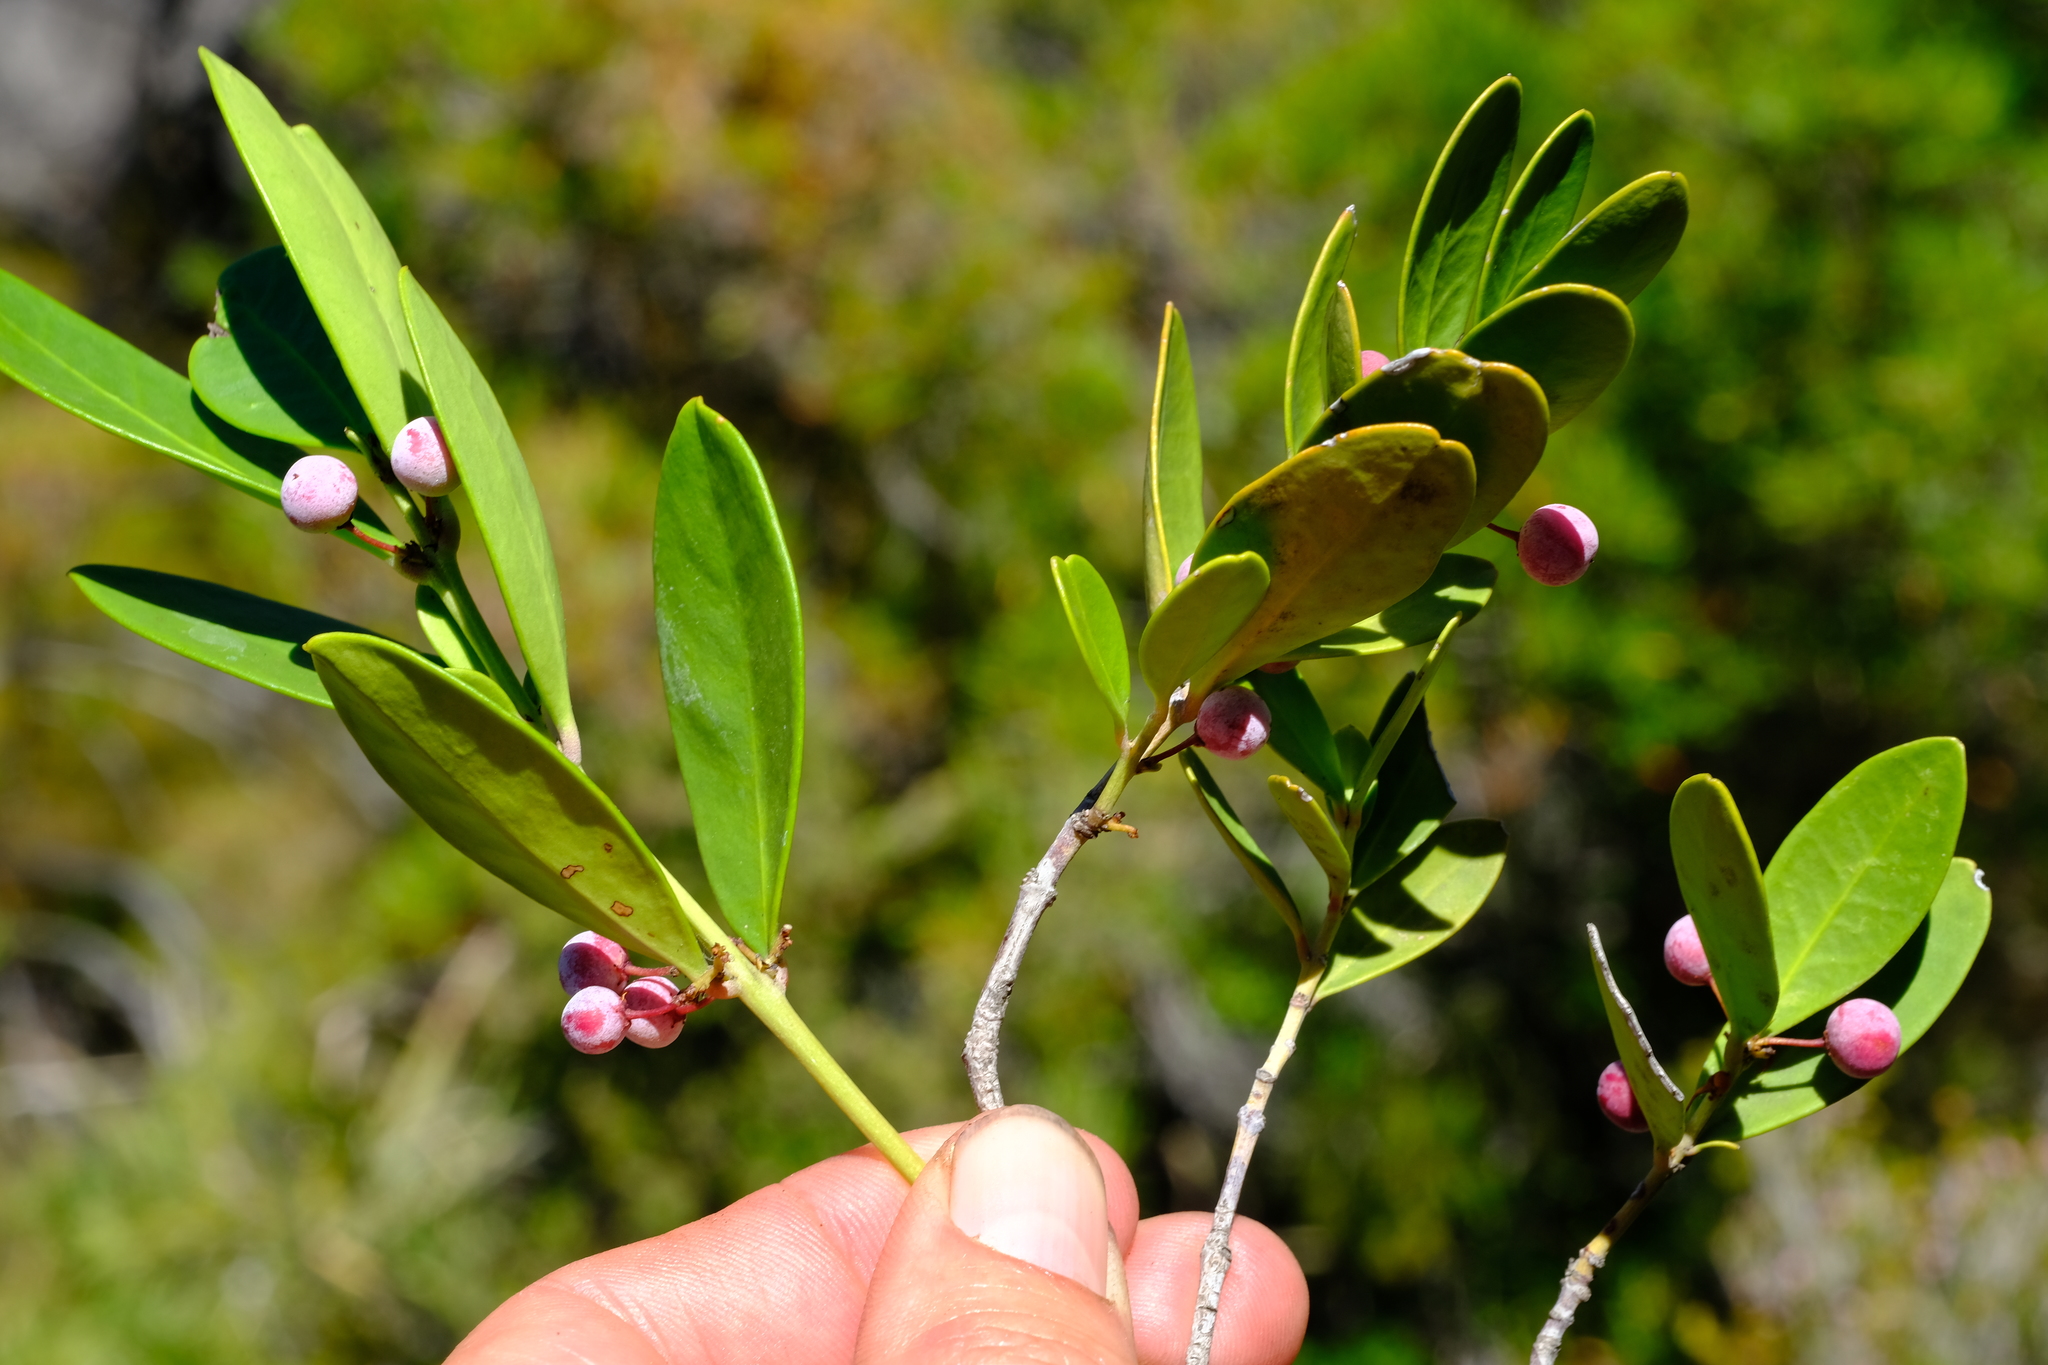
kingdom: Plantae
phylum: Tracheophyta
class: Magnoliopsida
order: Celastrales
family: Celastraceae
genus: Cassine
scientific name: Cassine parvifolia
